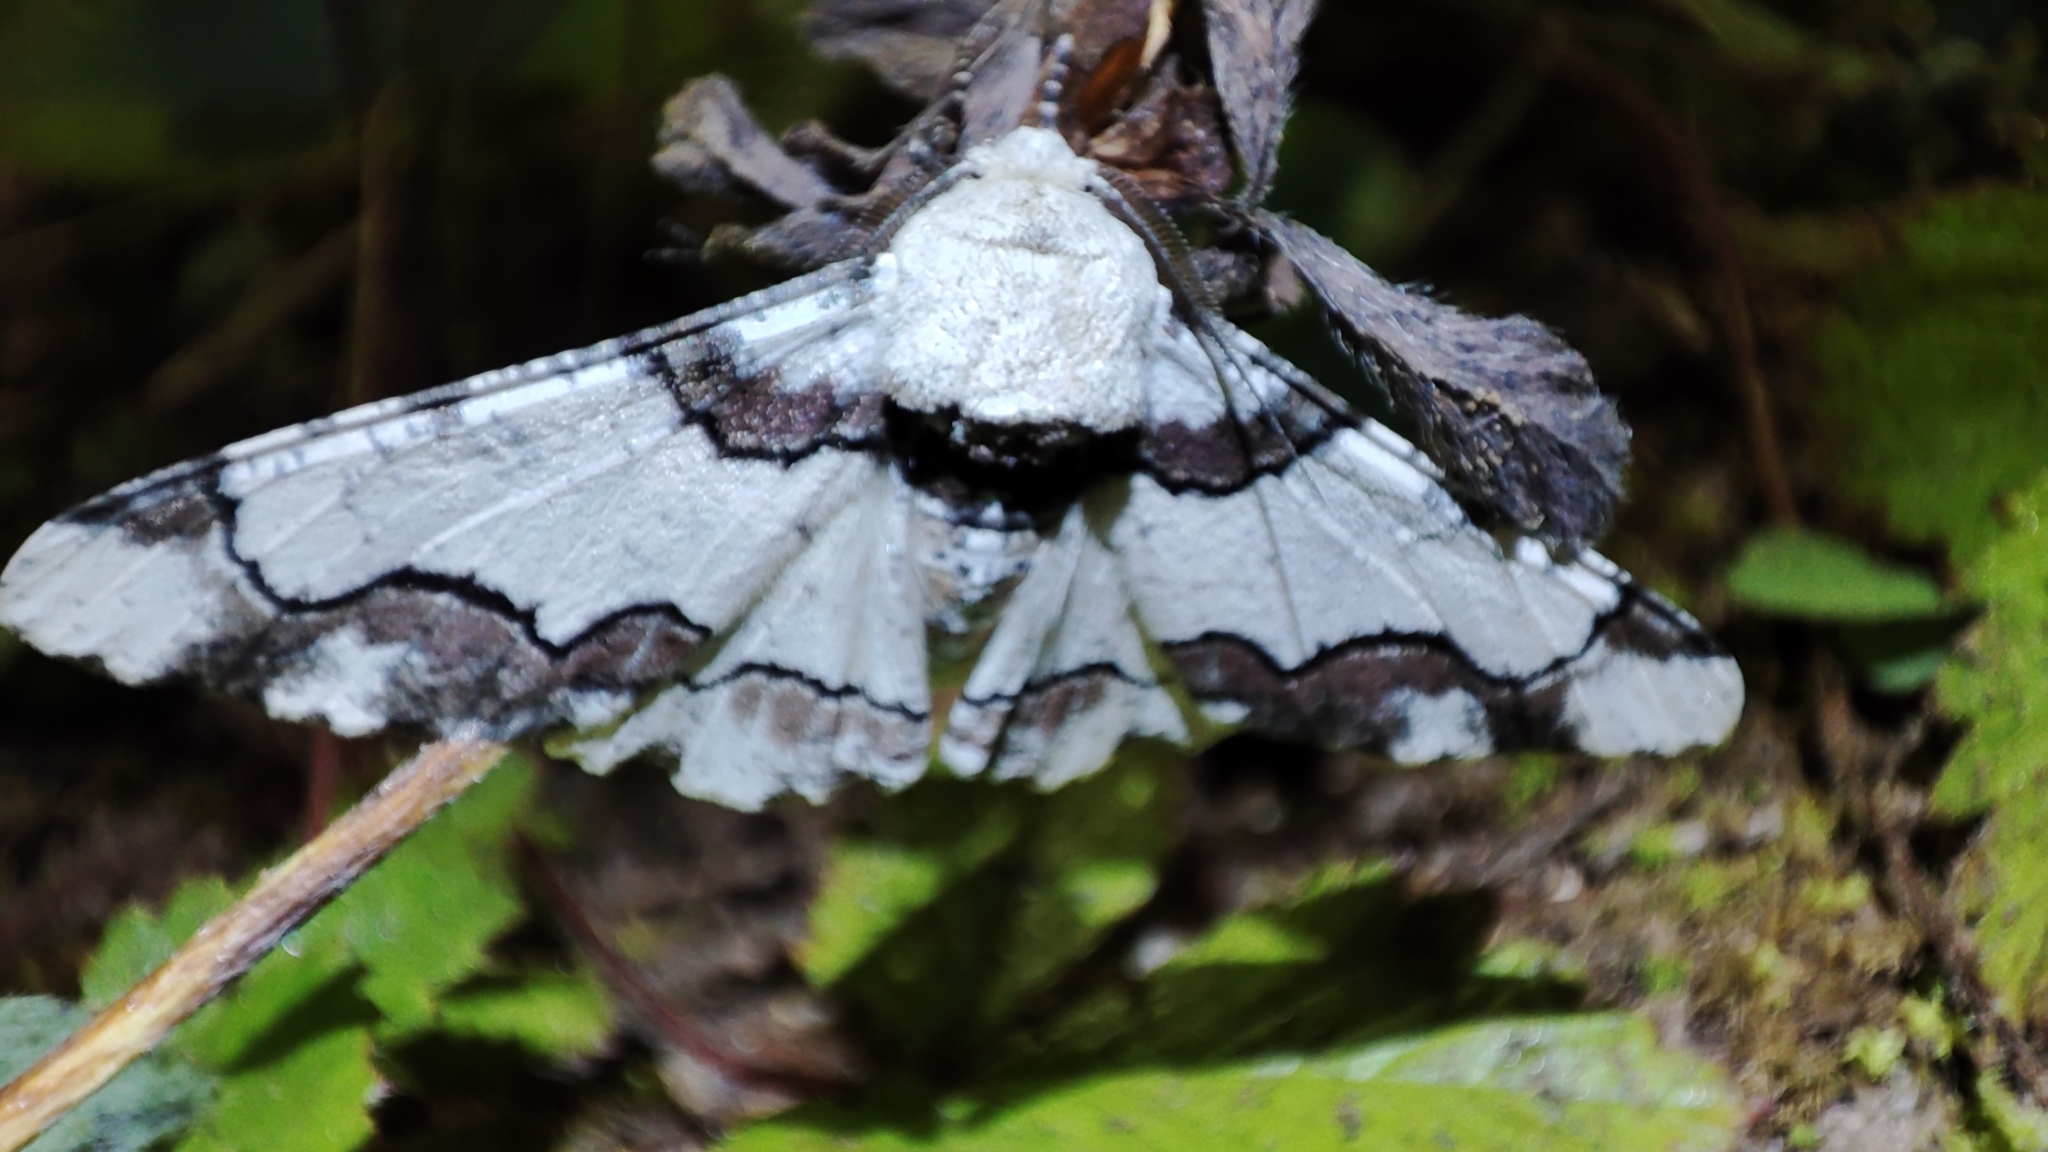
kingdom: Animalia
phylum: Arthropoda
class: Insecta
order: Lepidoptera
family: Geometridae
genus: Biston
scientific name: Biston regalis
